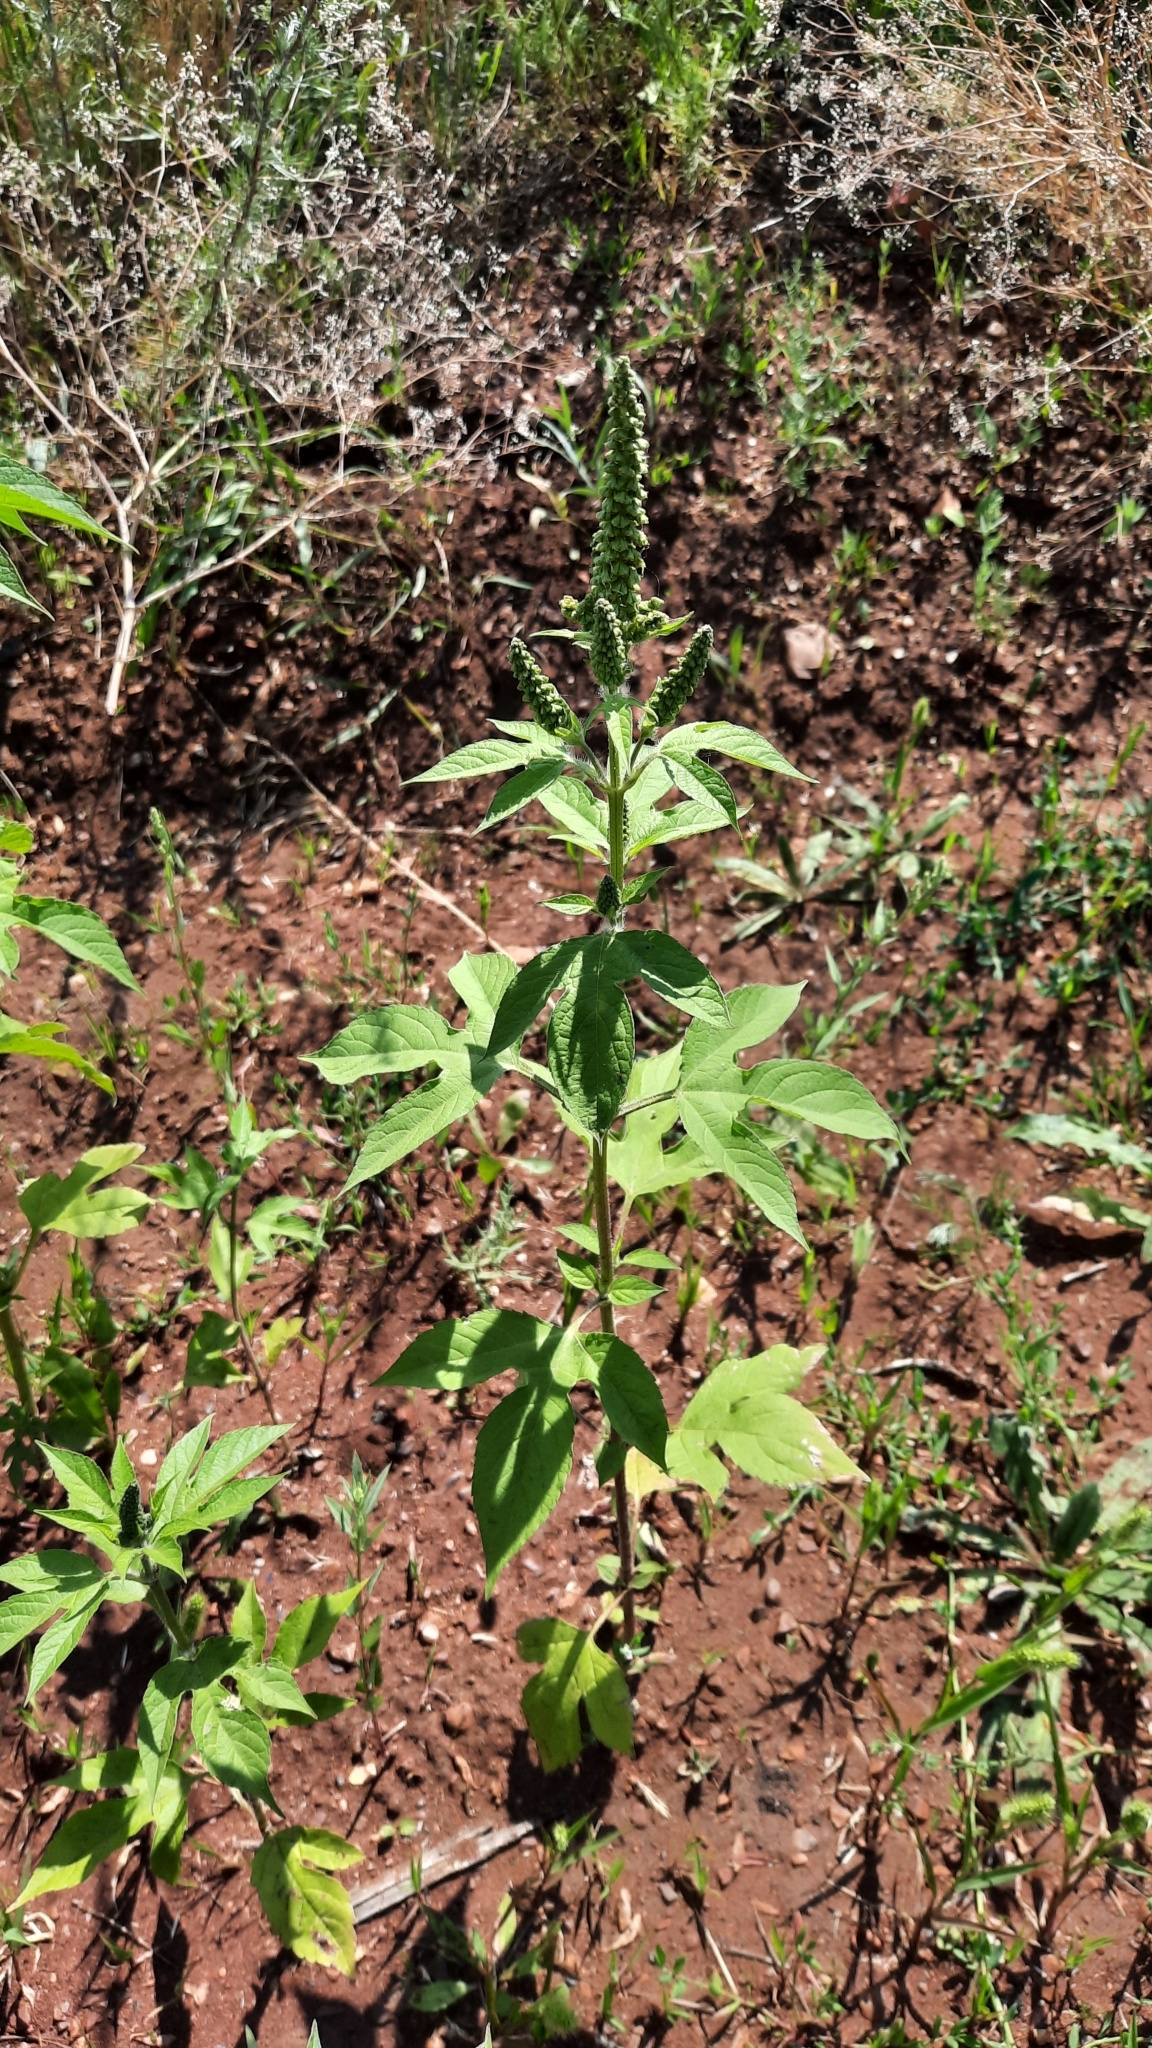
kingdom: Plantae
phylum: Tracheophyta
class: Magnoliopsida
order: Asterales
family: Asteraceae
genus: Ambrosia
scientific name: Ambrosia trifida
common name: Giant ragweed
